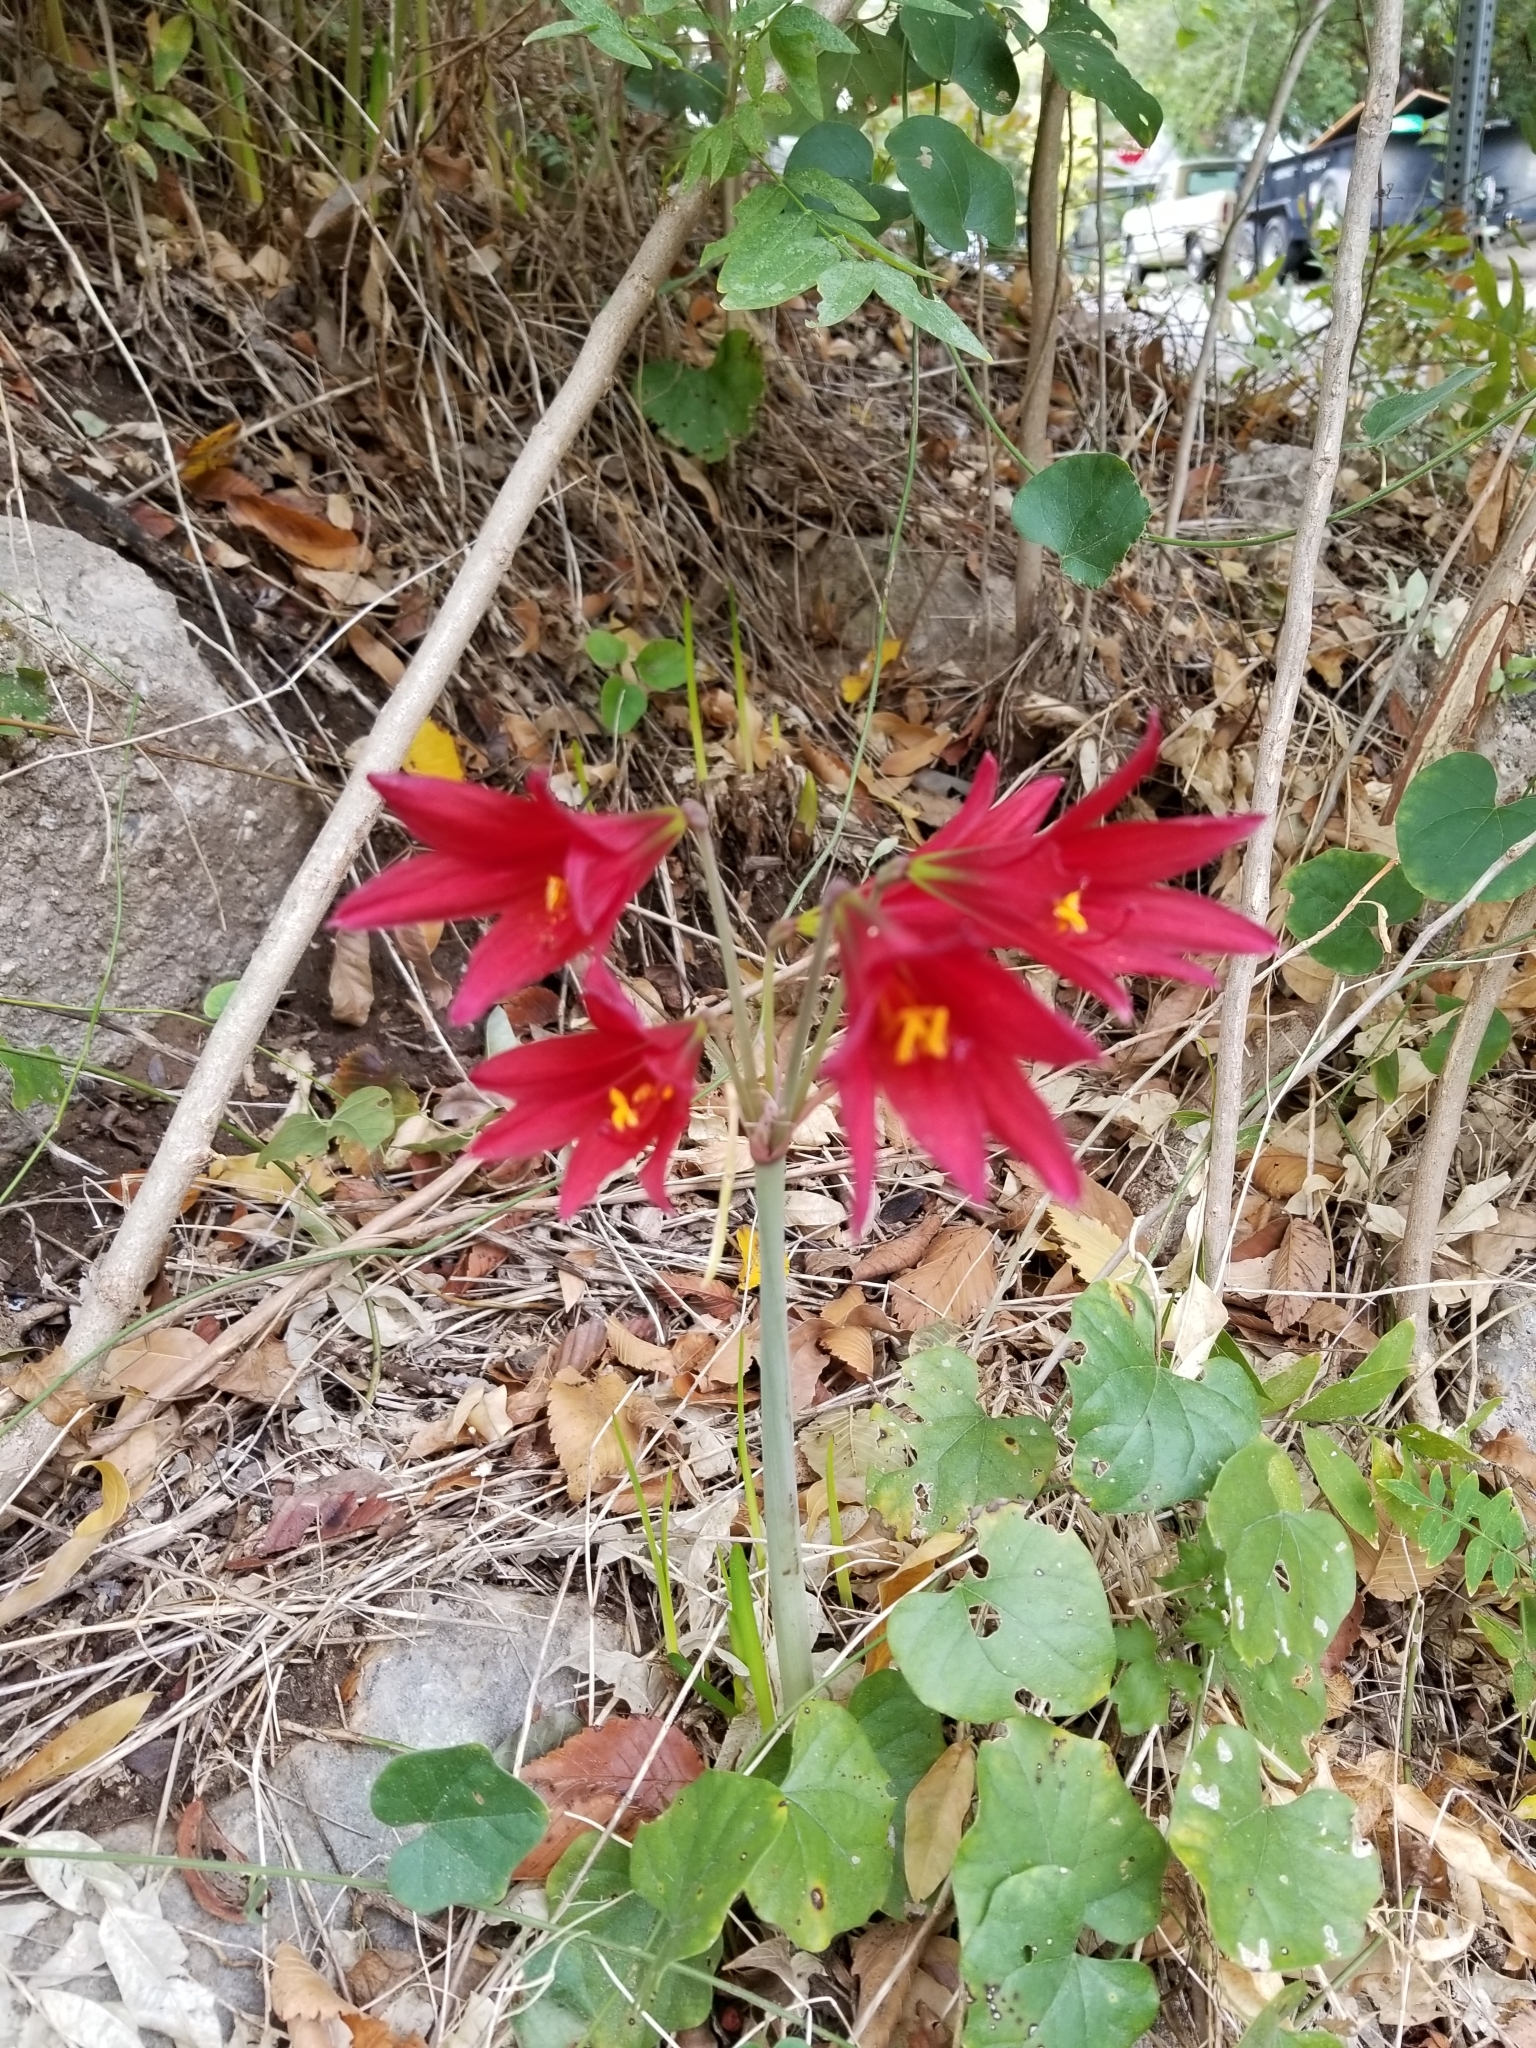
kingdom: Plantae
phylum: Tracheophyta
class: Liliopsida
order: Asparagales
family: Amaryllidaceae
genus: Zephyranthes
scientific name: Zephyranthes bifida
